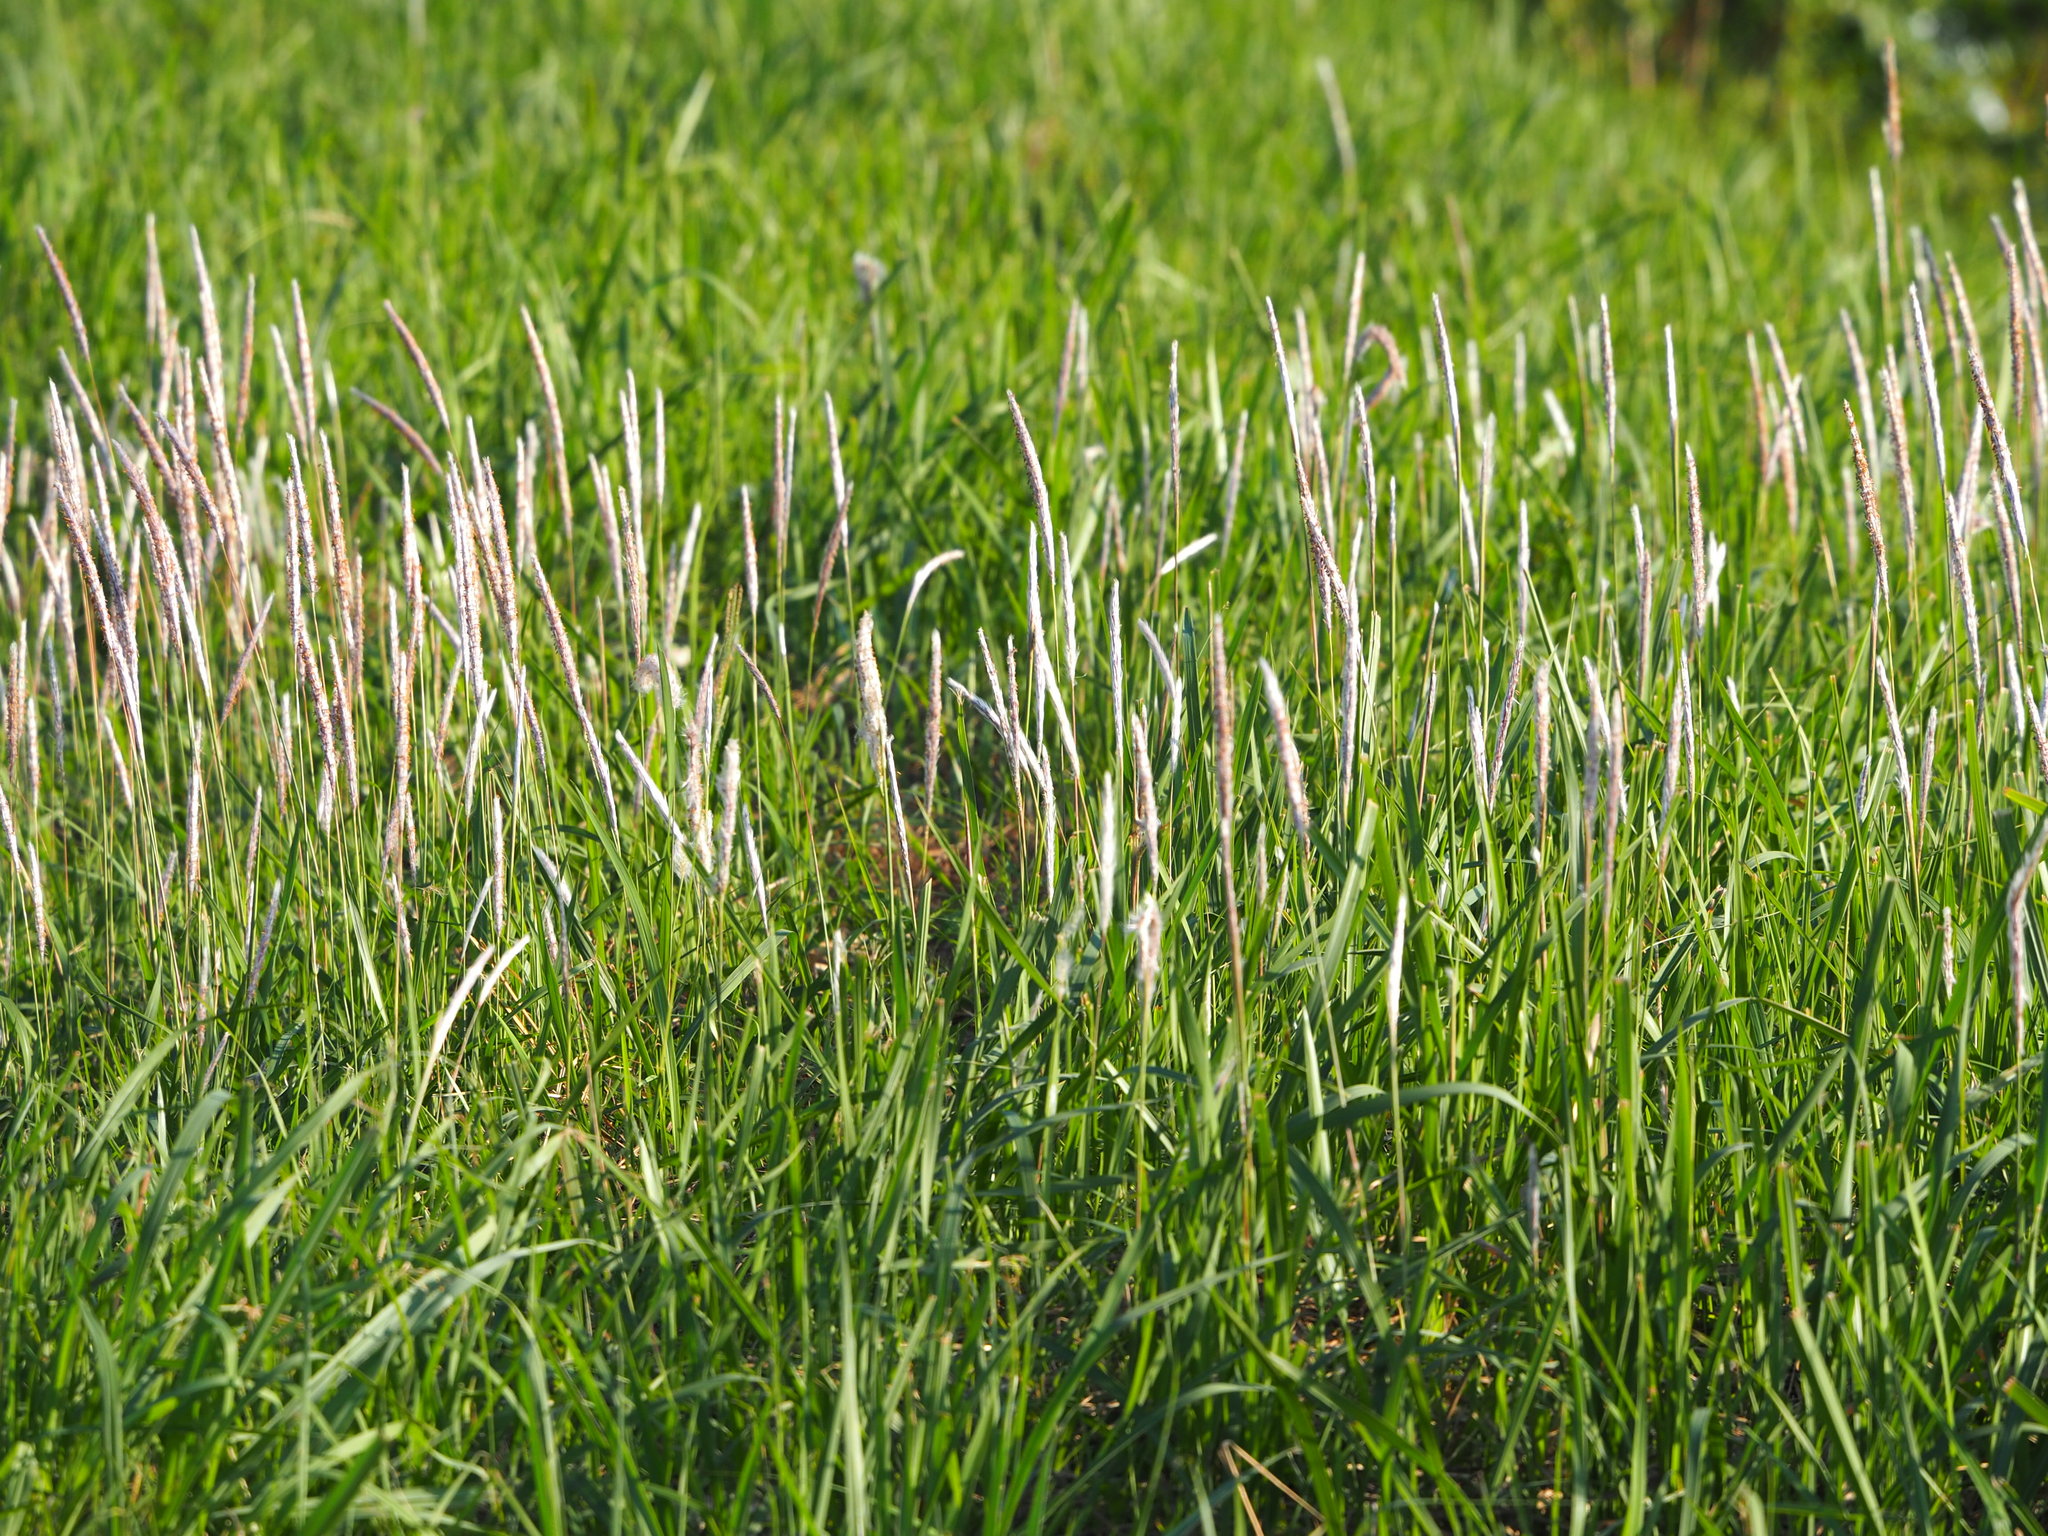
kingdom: Plantae
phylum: Tracheophyta
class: Liliopsida
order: Poales
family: Poaceae
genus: Imperata
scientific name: Imperata cylindrica
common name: Cogongrass
